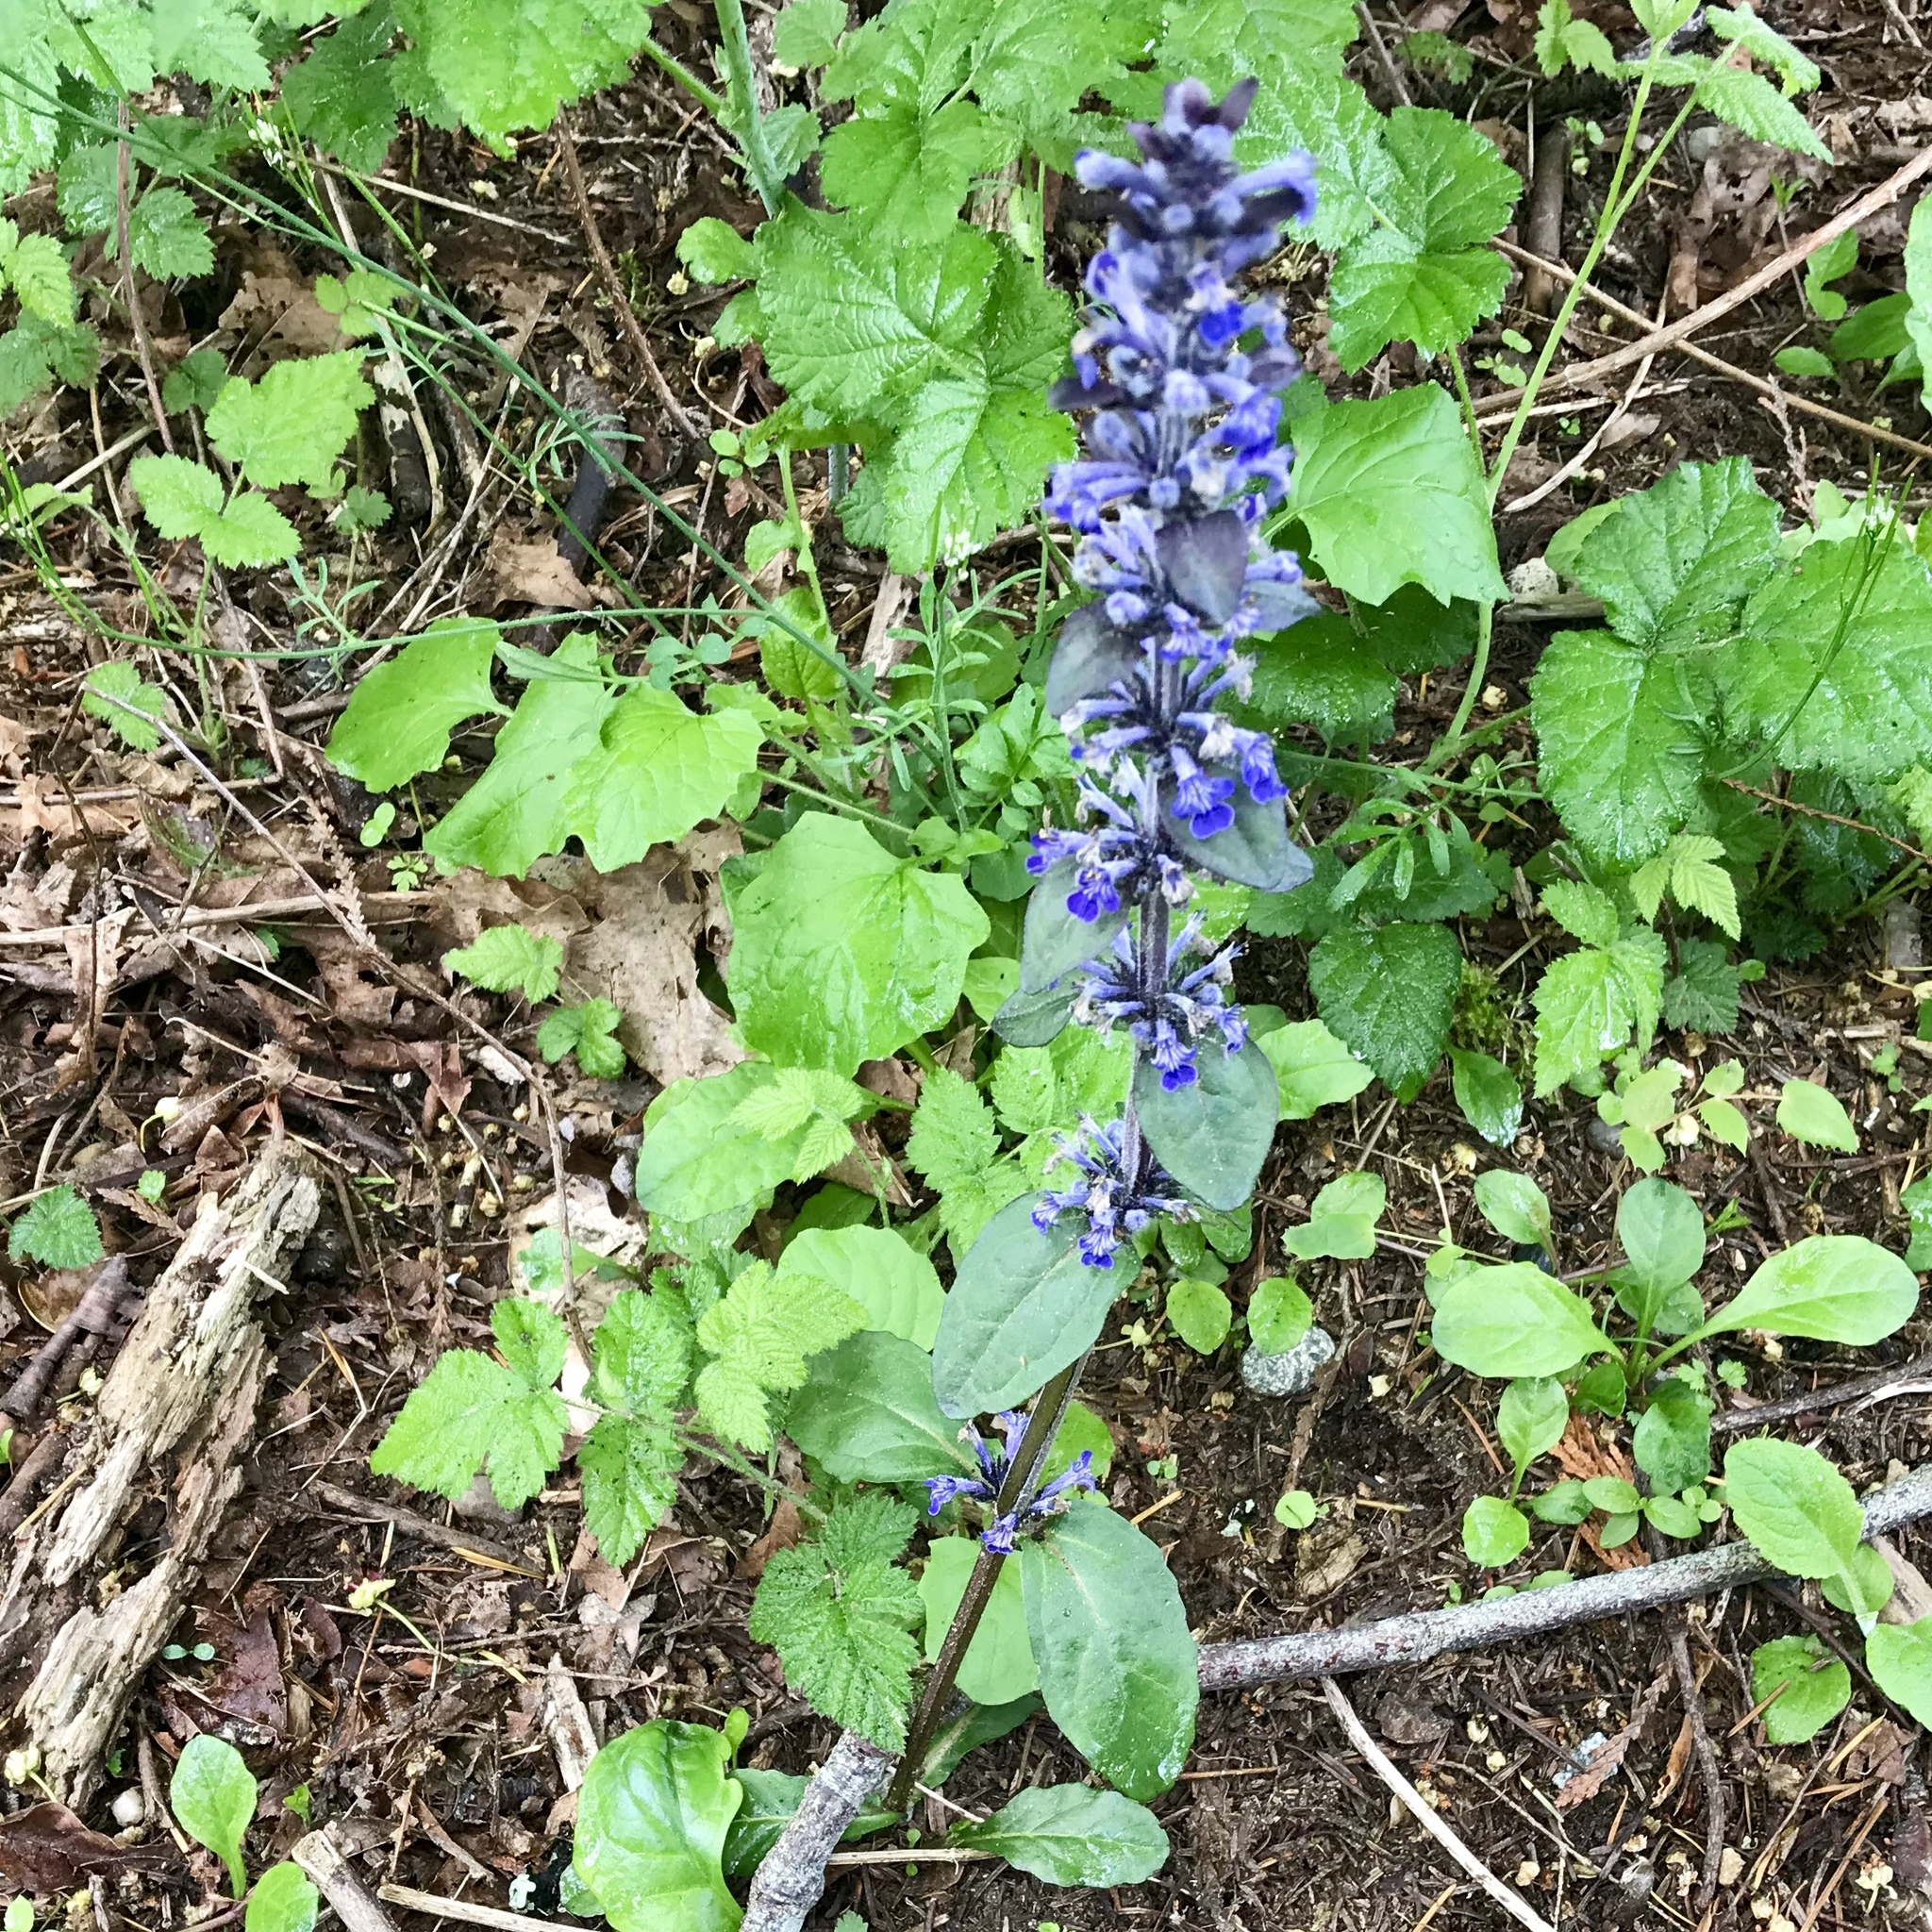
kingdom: Plantae
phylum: Tracheophyta
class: Magnoliopsida
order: Lamiales
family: Lamiaceae
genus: Ajuga
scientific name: Ajuga reptans
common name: Bugle
